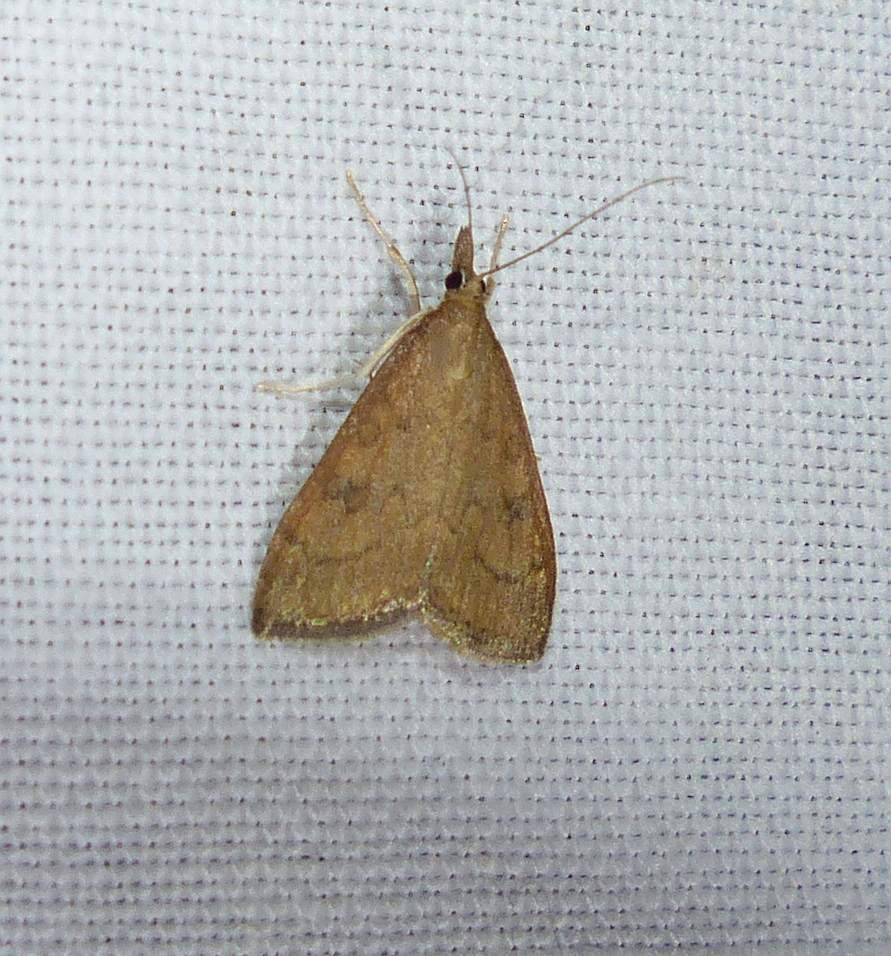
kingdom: Animalia
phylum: Arthropoda
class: Insecta
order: Lepidoptera
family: Crambidae
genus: Udea
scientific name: Udea rubigalis
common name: Celery leaftier moth
